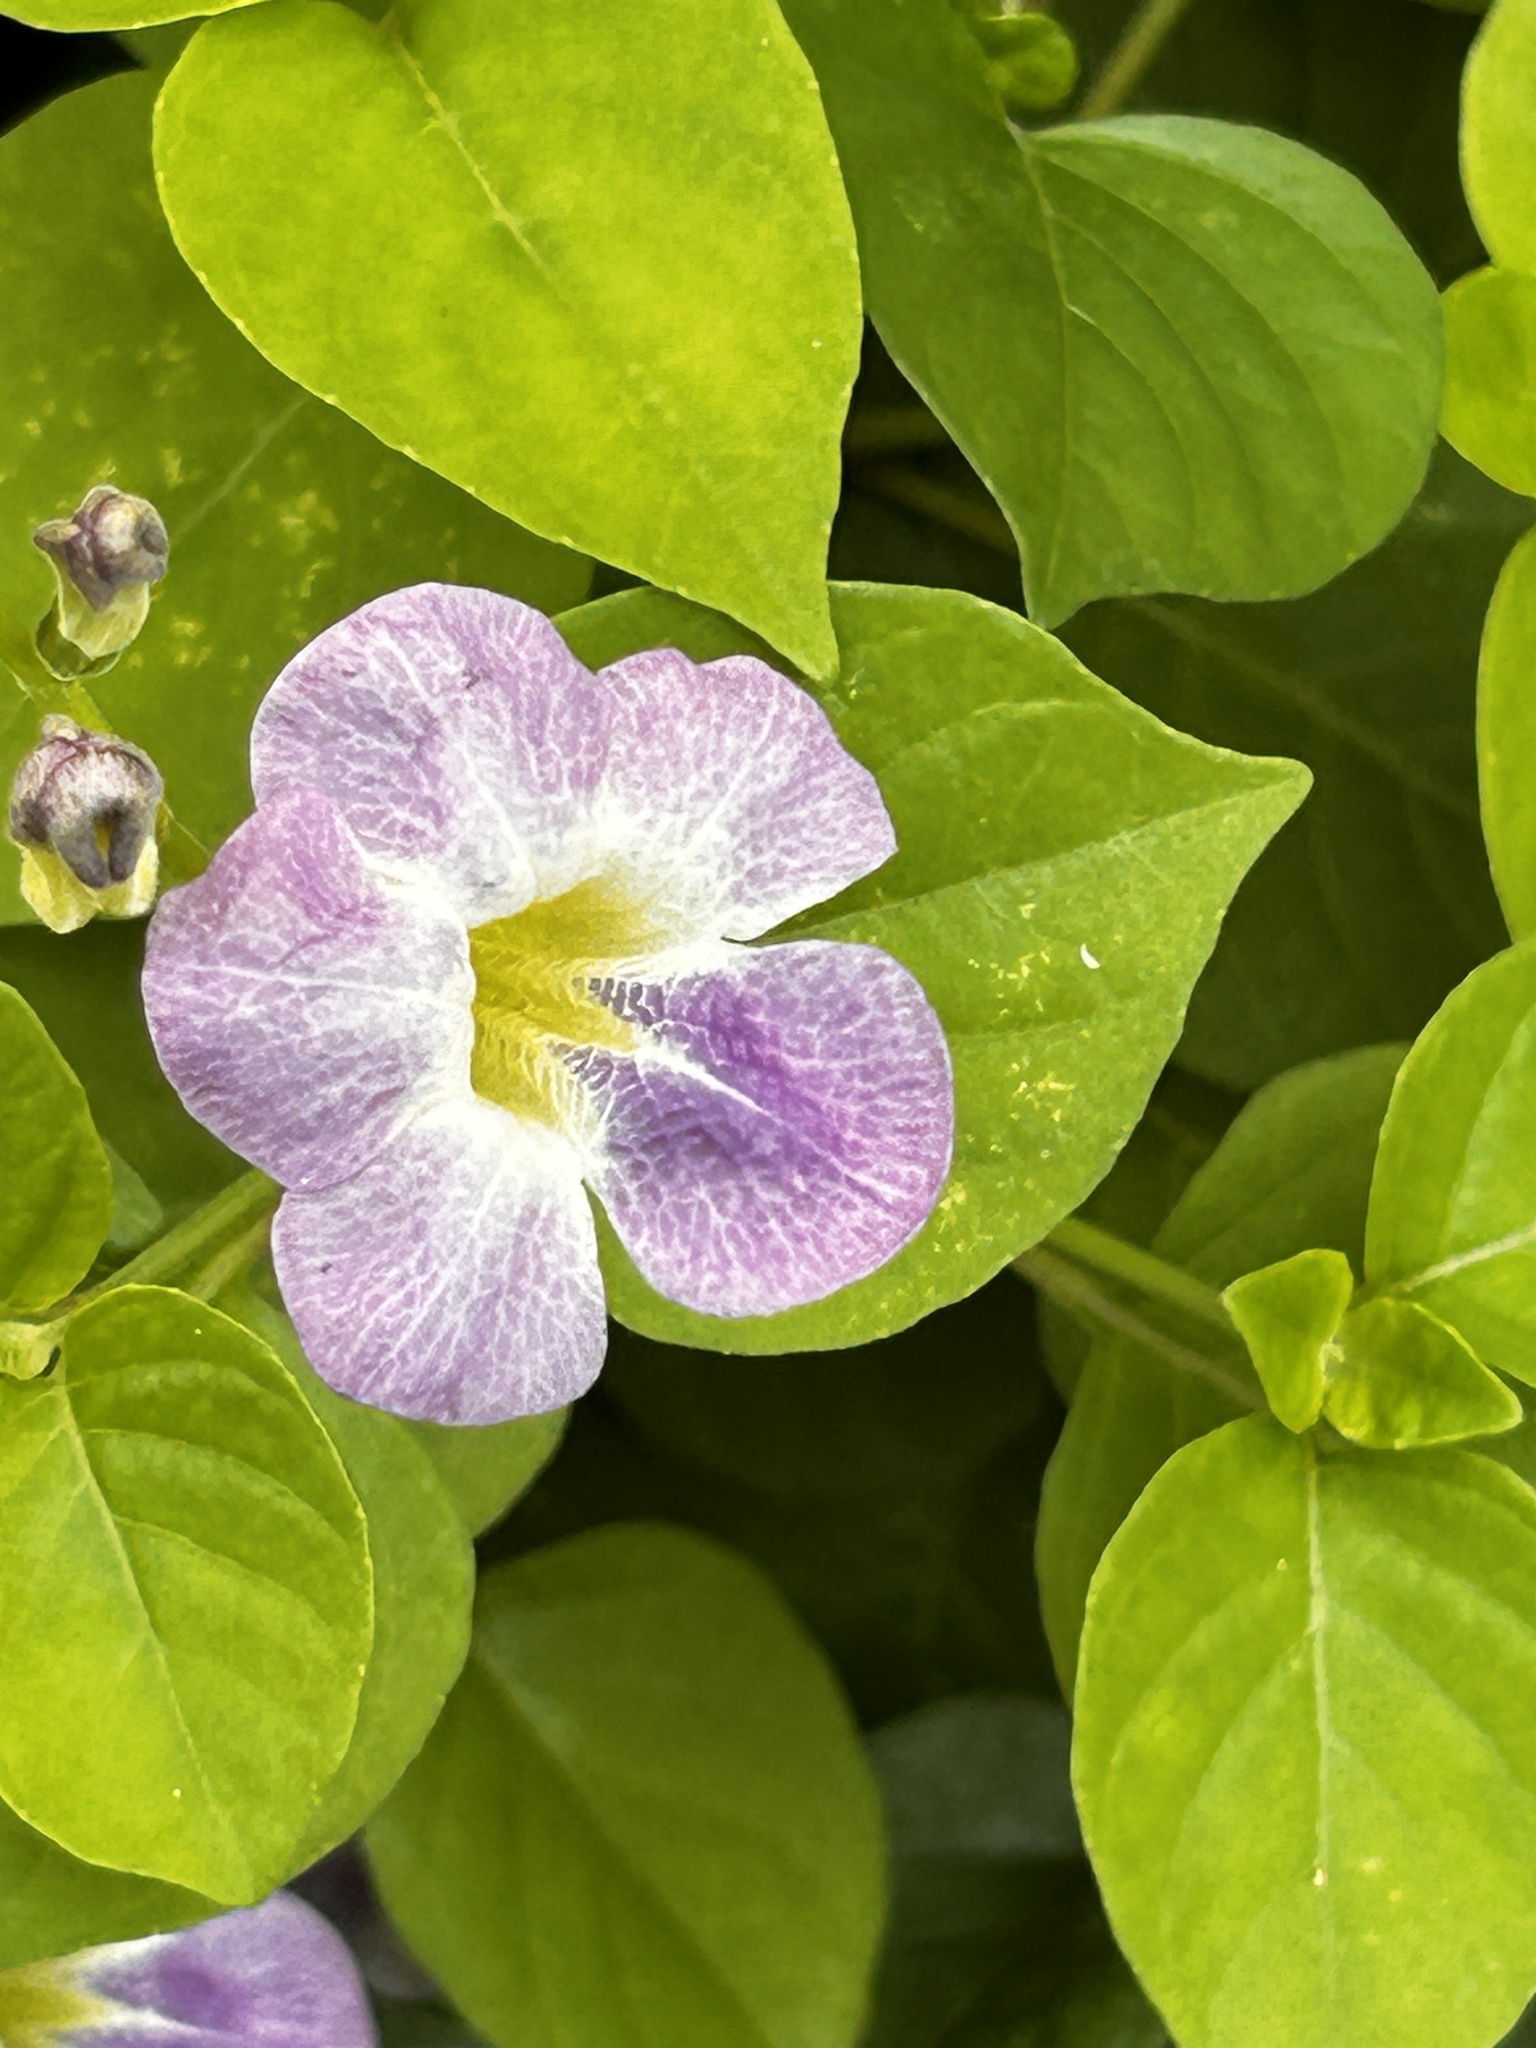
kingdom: Plantae
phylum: Tracheophyta
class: Magnoliopsida
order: Lamiales
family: Acanthaceae
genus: Asystasia
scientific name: Asystasia gangetica
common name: Chinese violet
